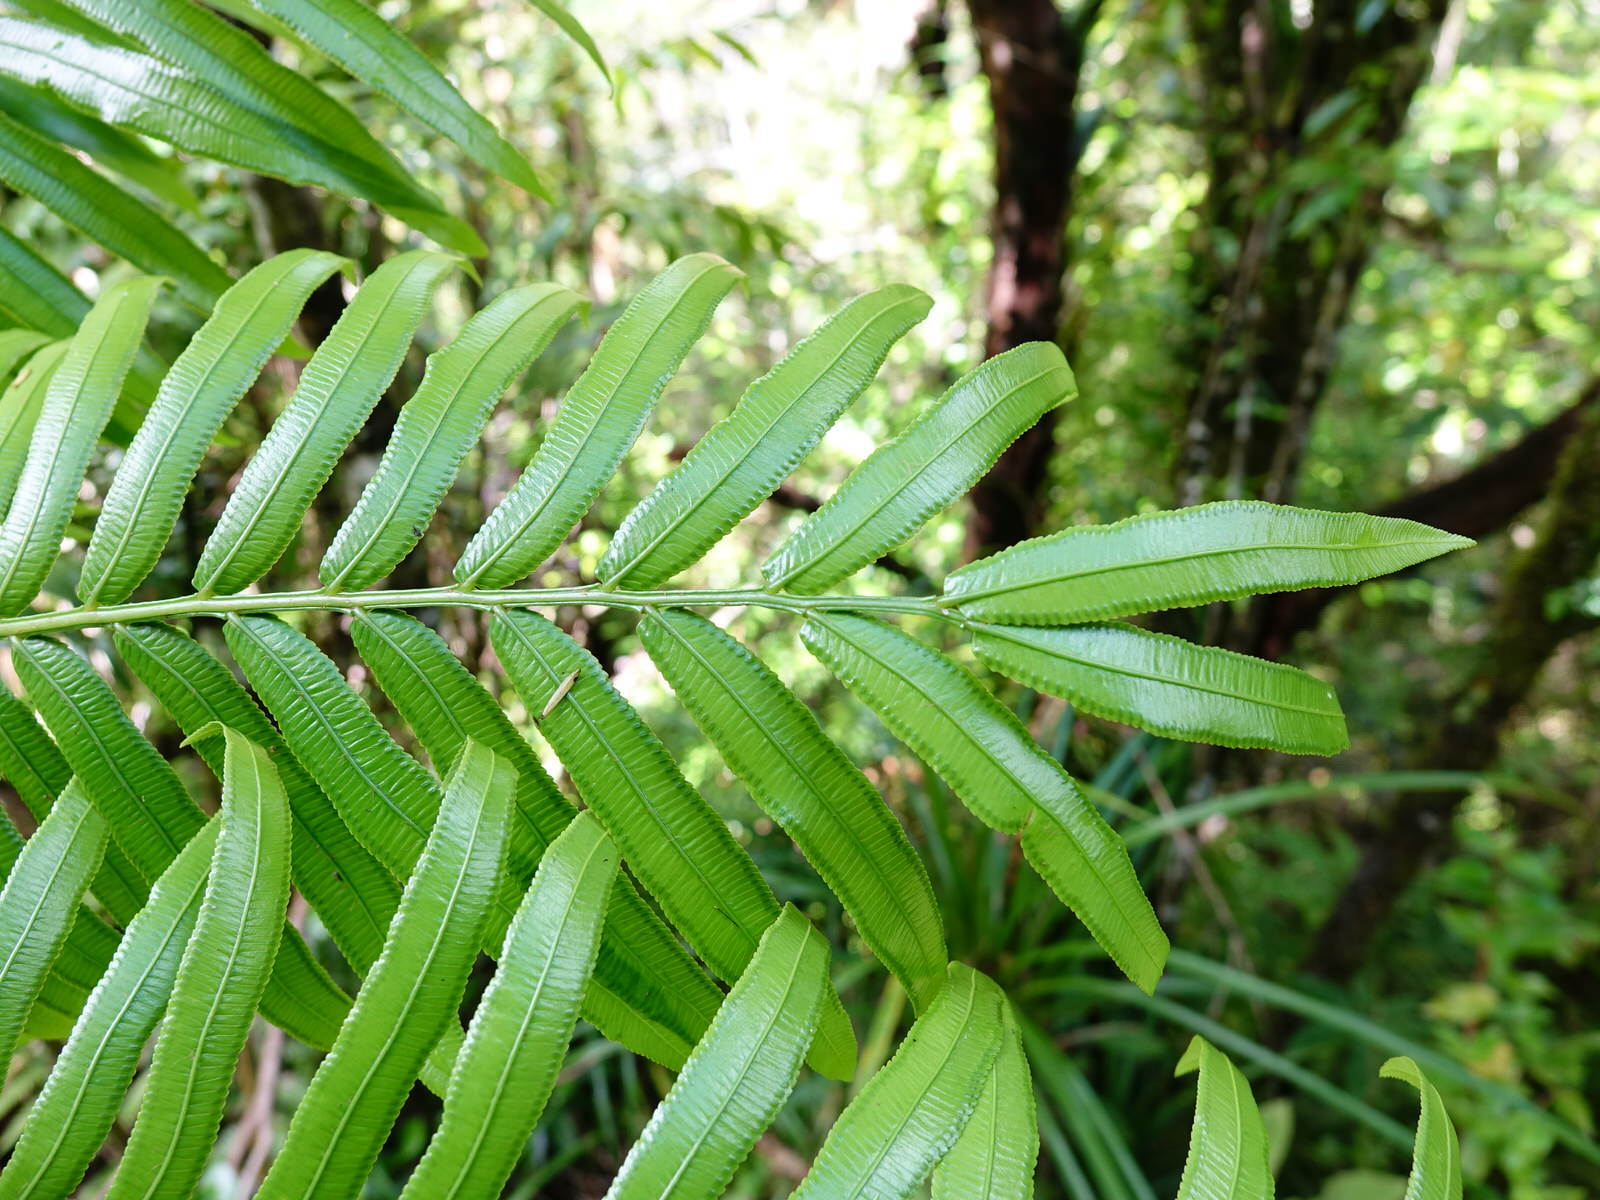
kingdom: Plantae
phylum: Tracheophyta
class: Polypodiopsida
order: Marattiales
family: Marattiaceae
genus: Ptisana
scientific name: Ptisana salicina
